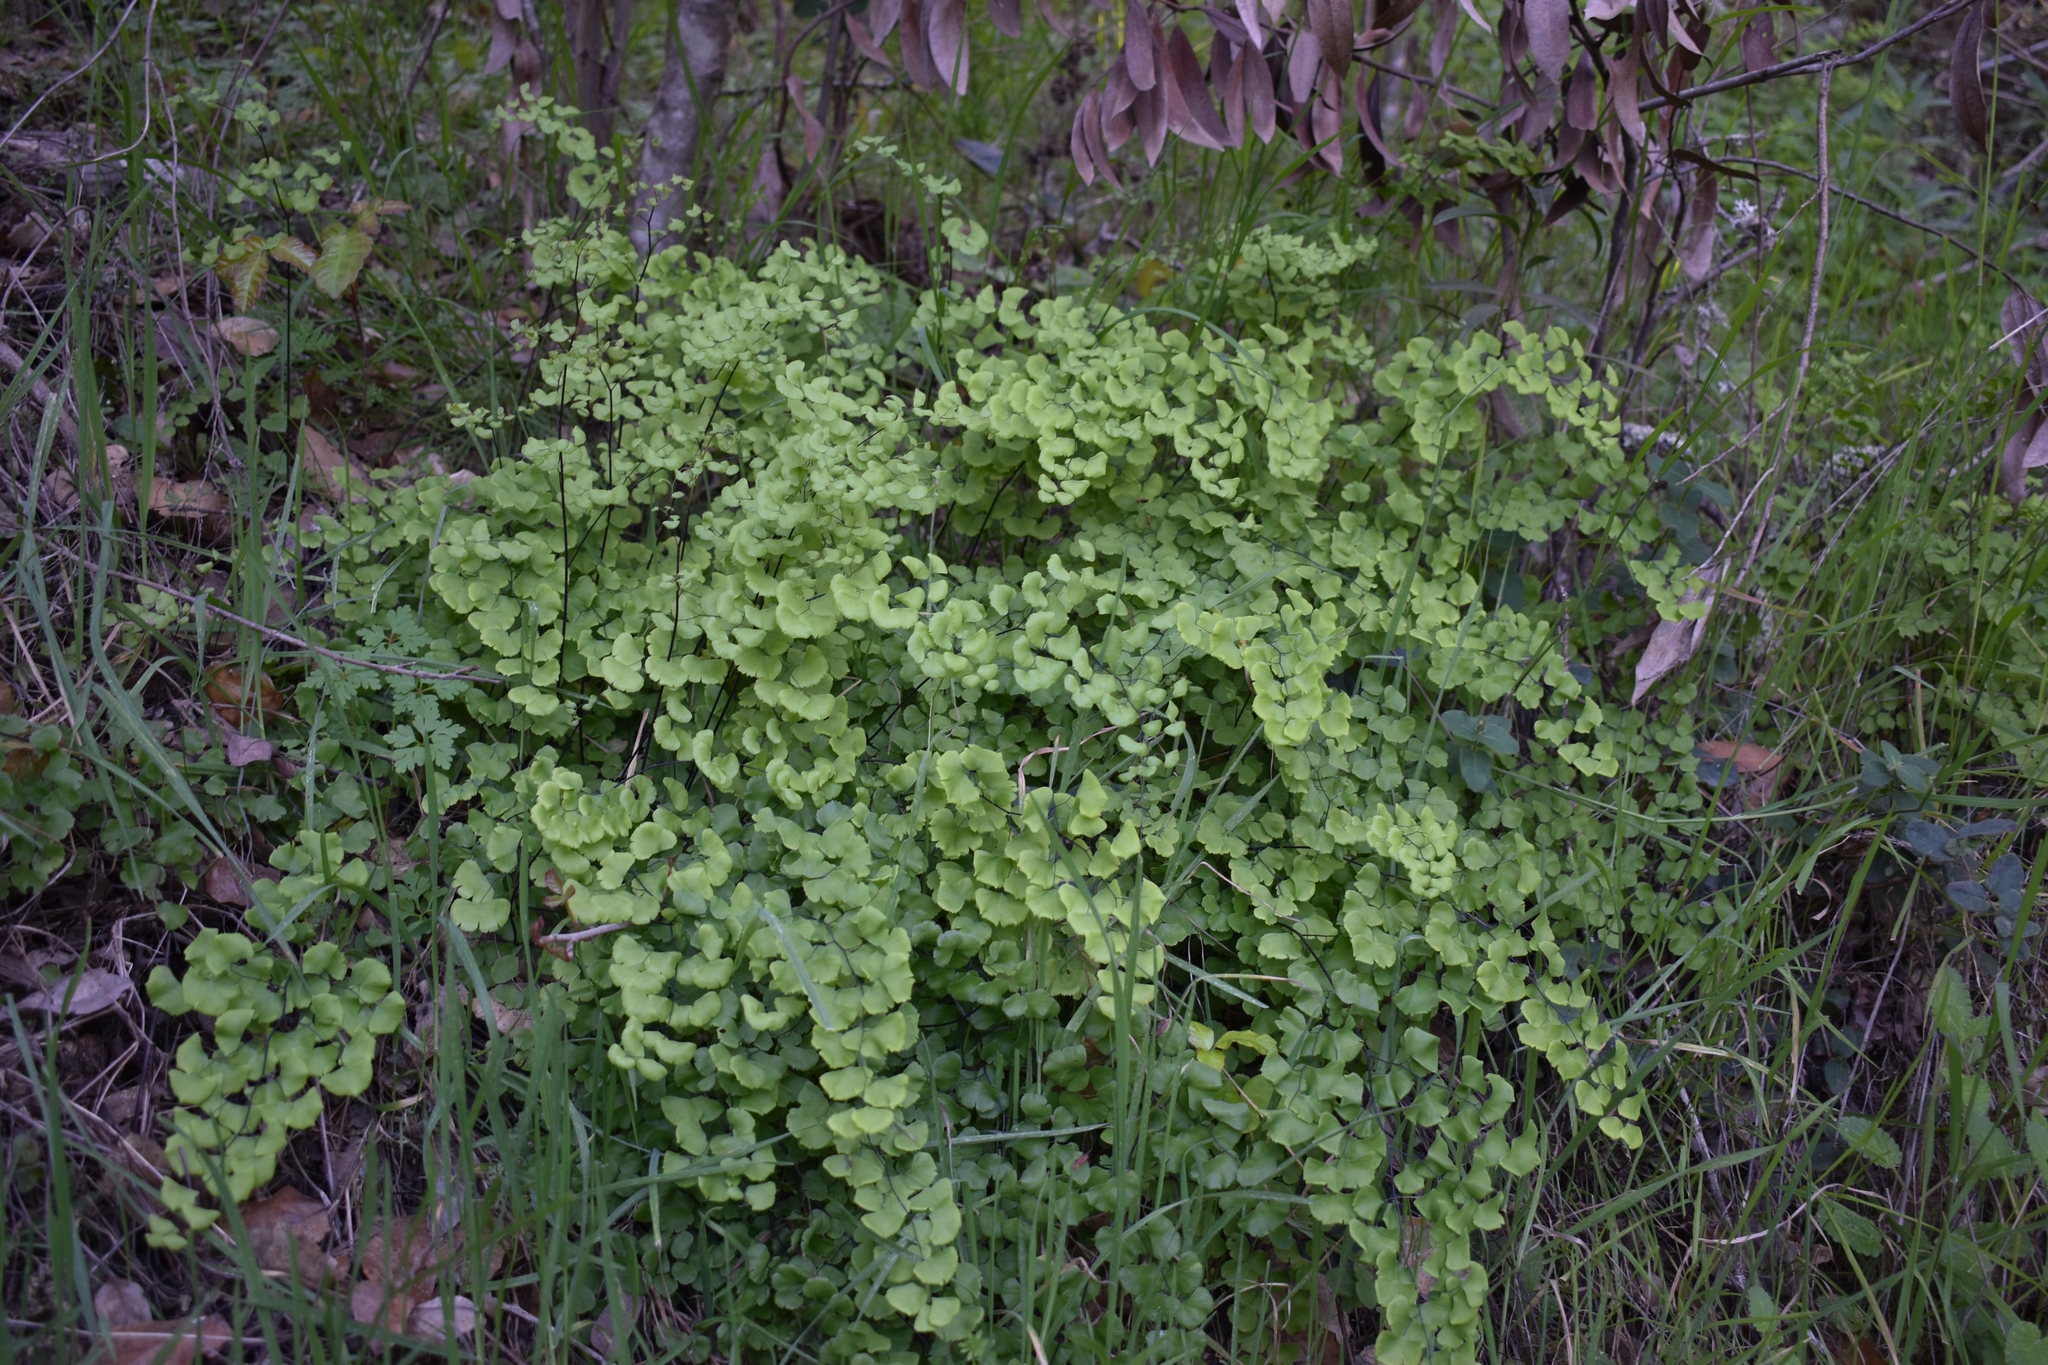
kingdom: Plantae
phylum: Tracheophyta
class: Polypodiopsida
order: Polypodiales
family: Pteridaceae
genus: Adiantum
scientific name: Adiantum jordanii
